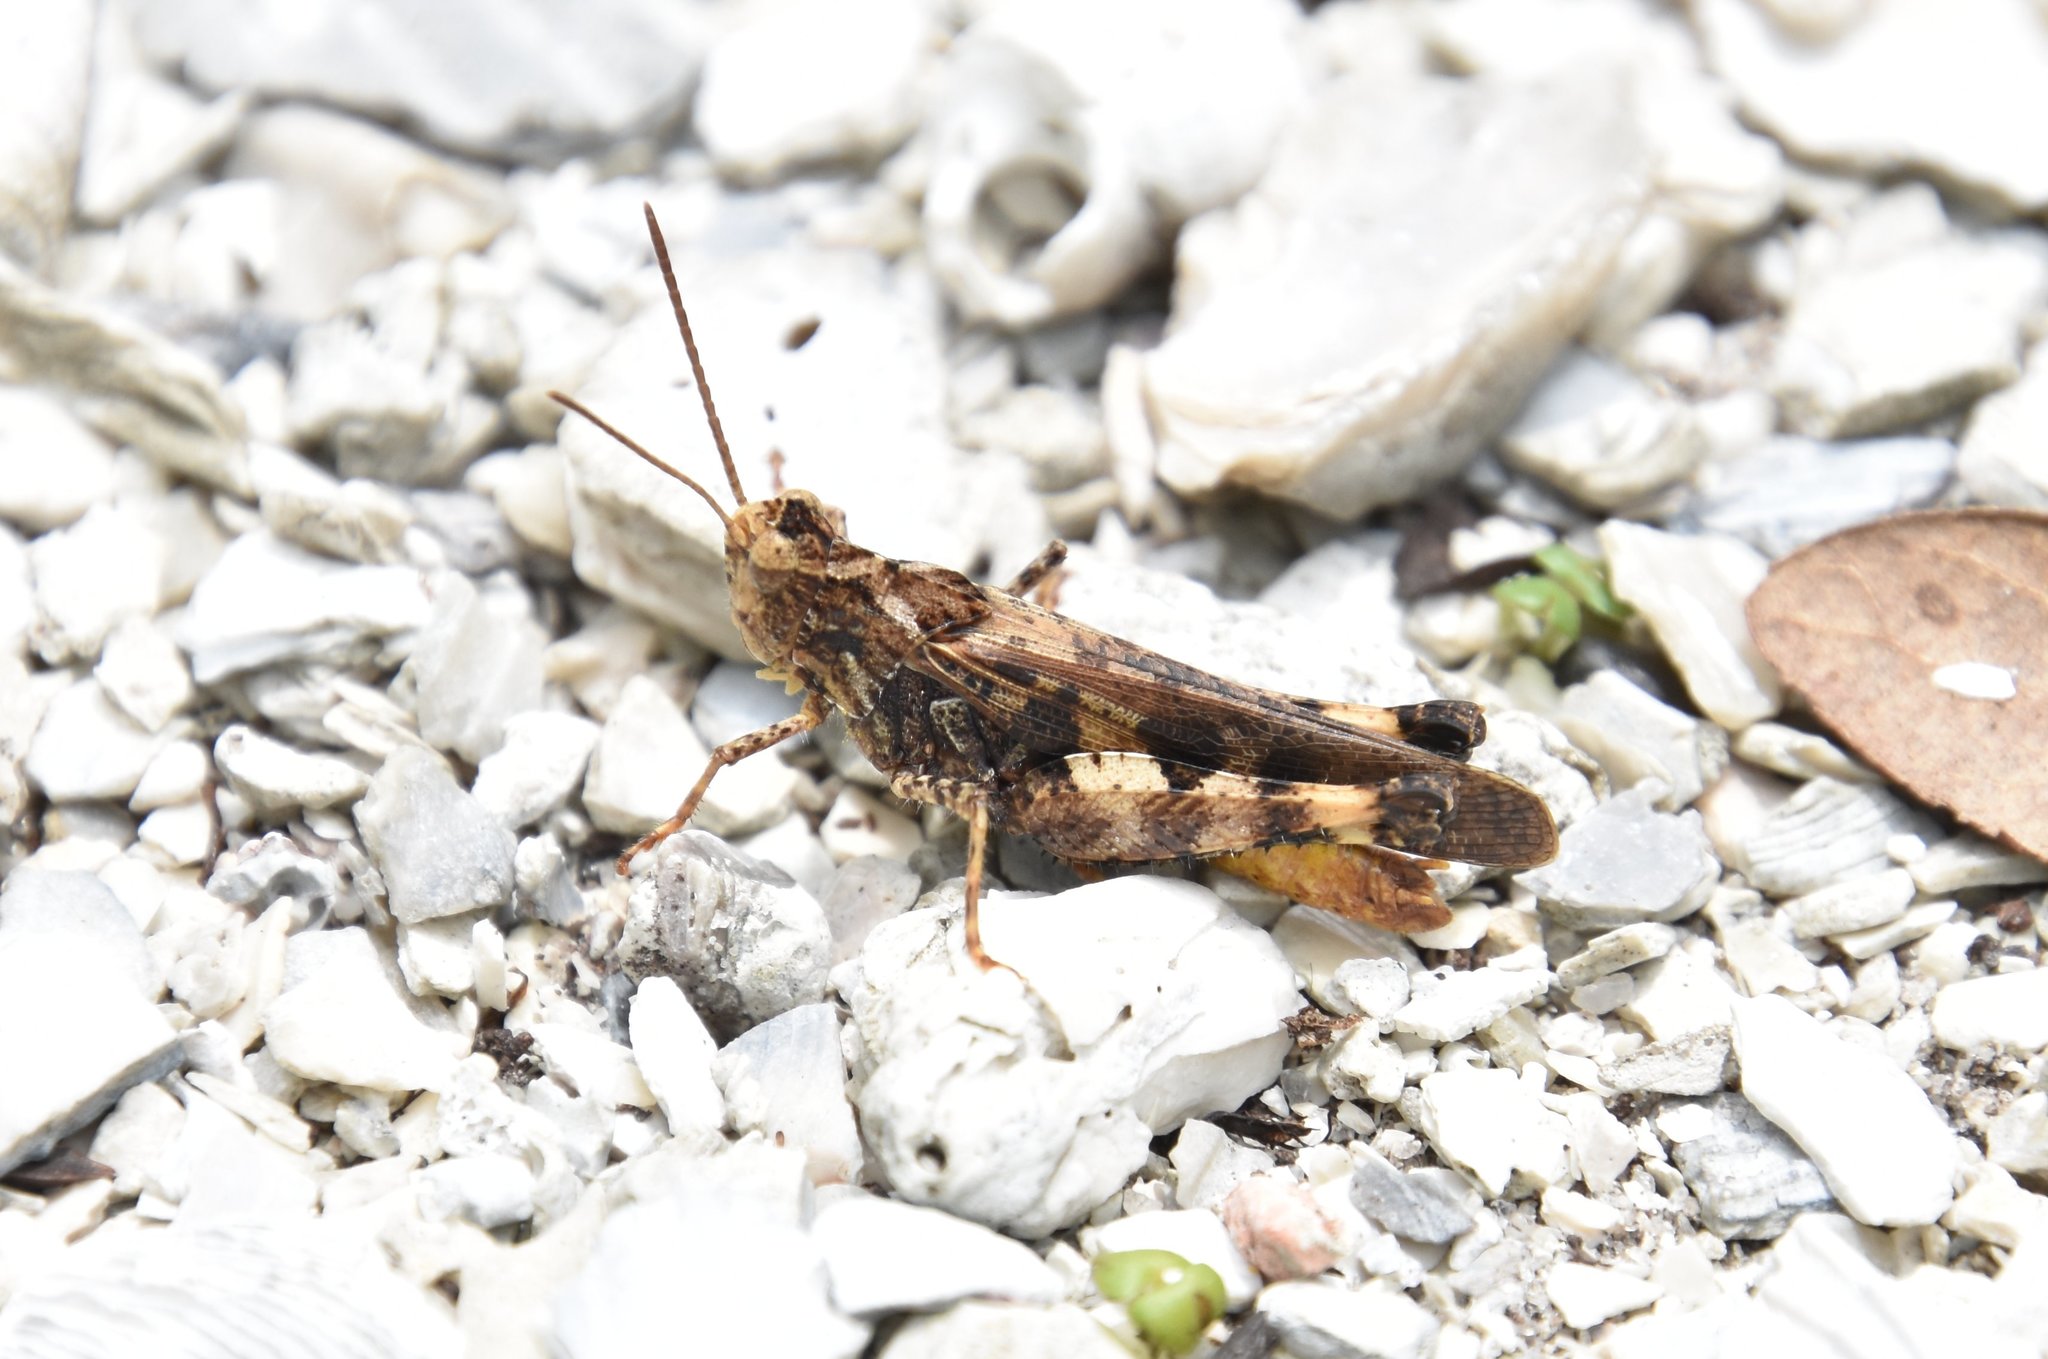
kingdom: Animalia
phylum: Arthropoda
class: Insecta
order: Orthoptera
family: Acrididae
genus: Chortophaga
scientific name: Chortophaga australior
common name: Southern green-striped grasshopper
